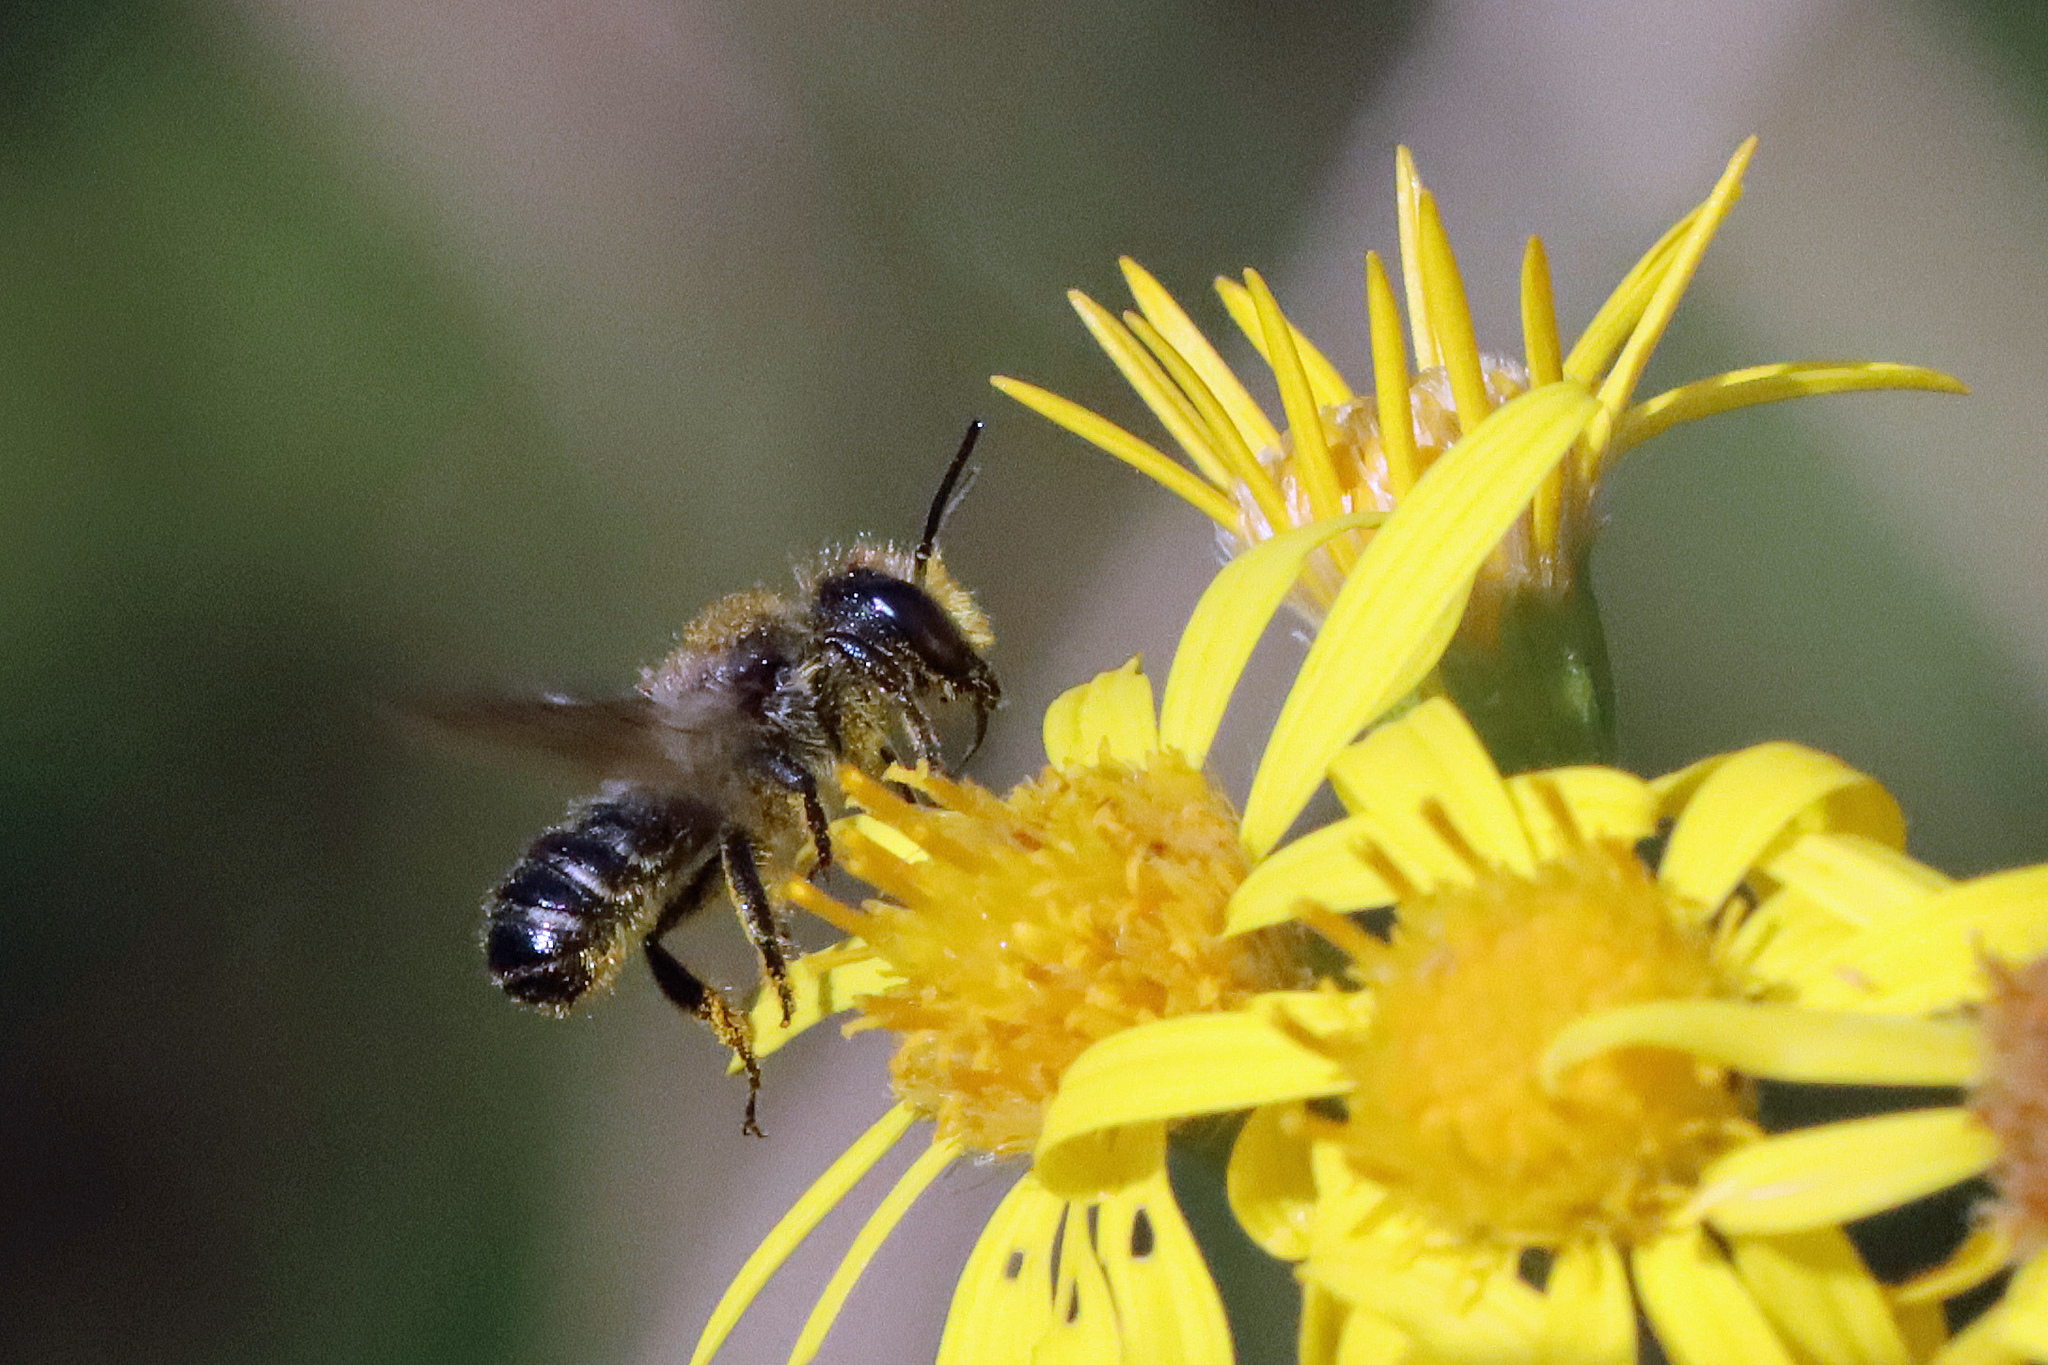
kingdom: Animalia
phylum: Arthropoda
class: Insecta
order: Hymenoptera
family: Megachilidae
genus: Megachile
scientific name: Megachile
